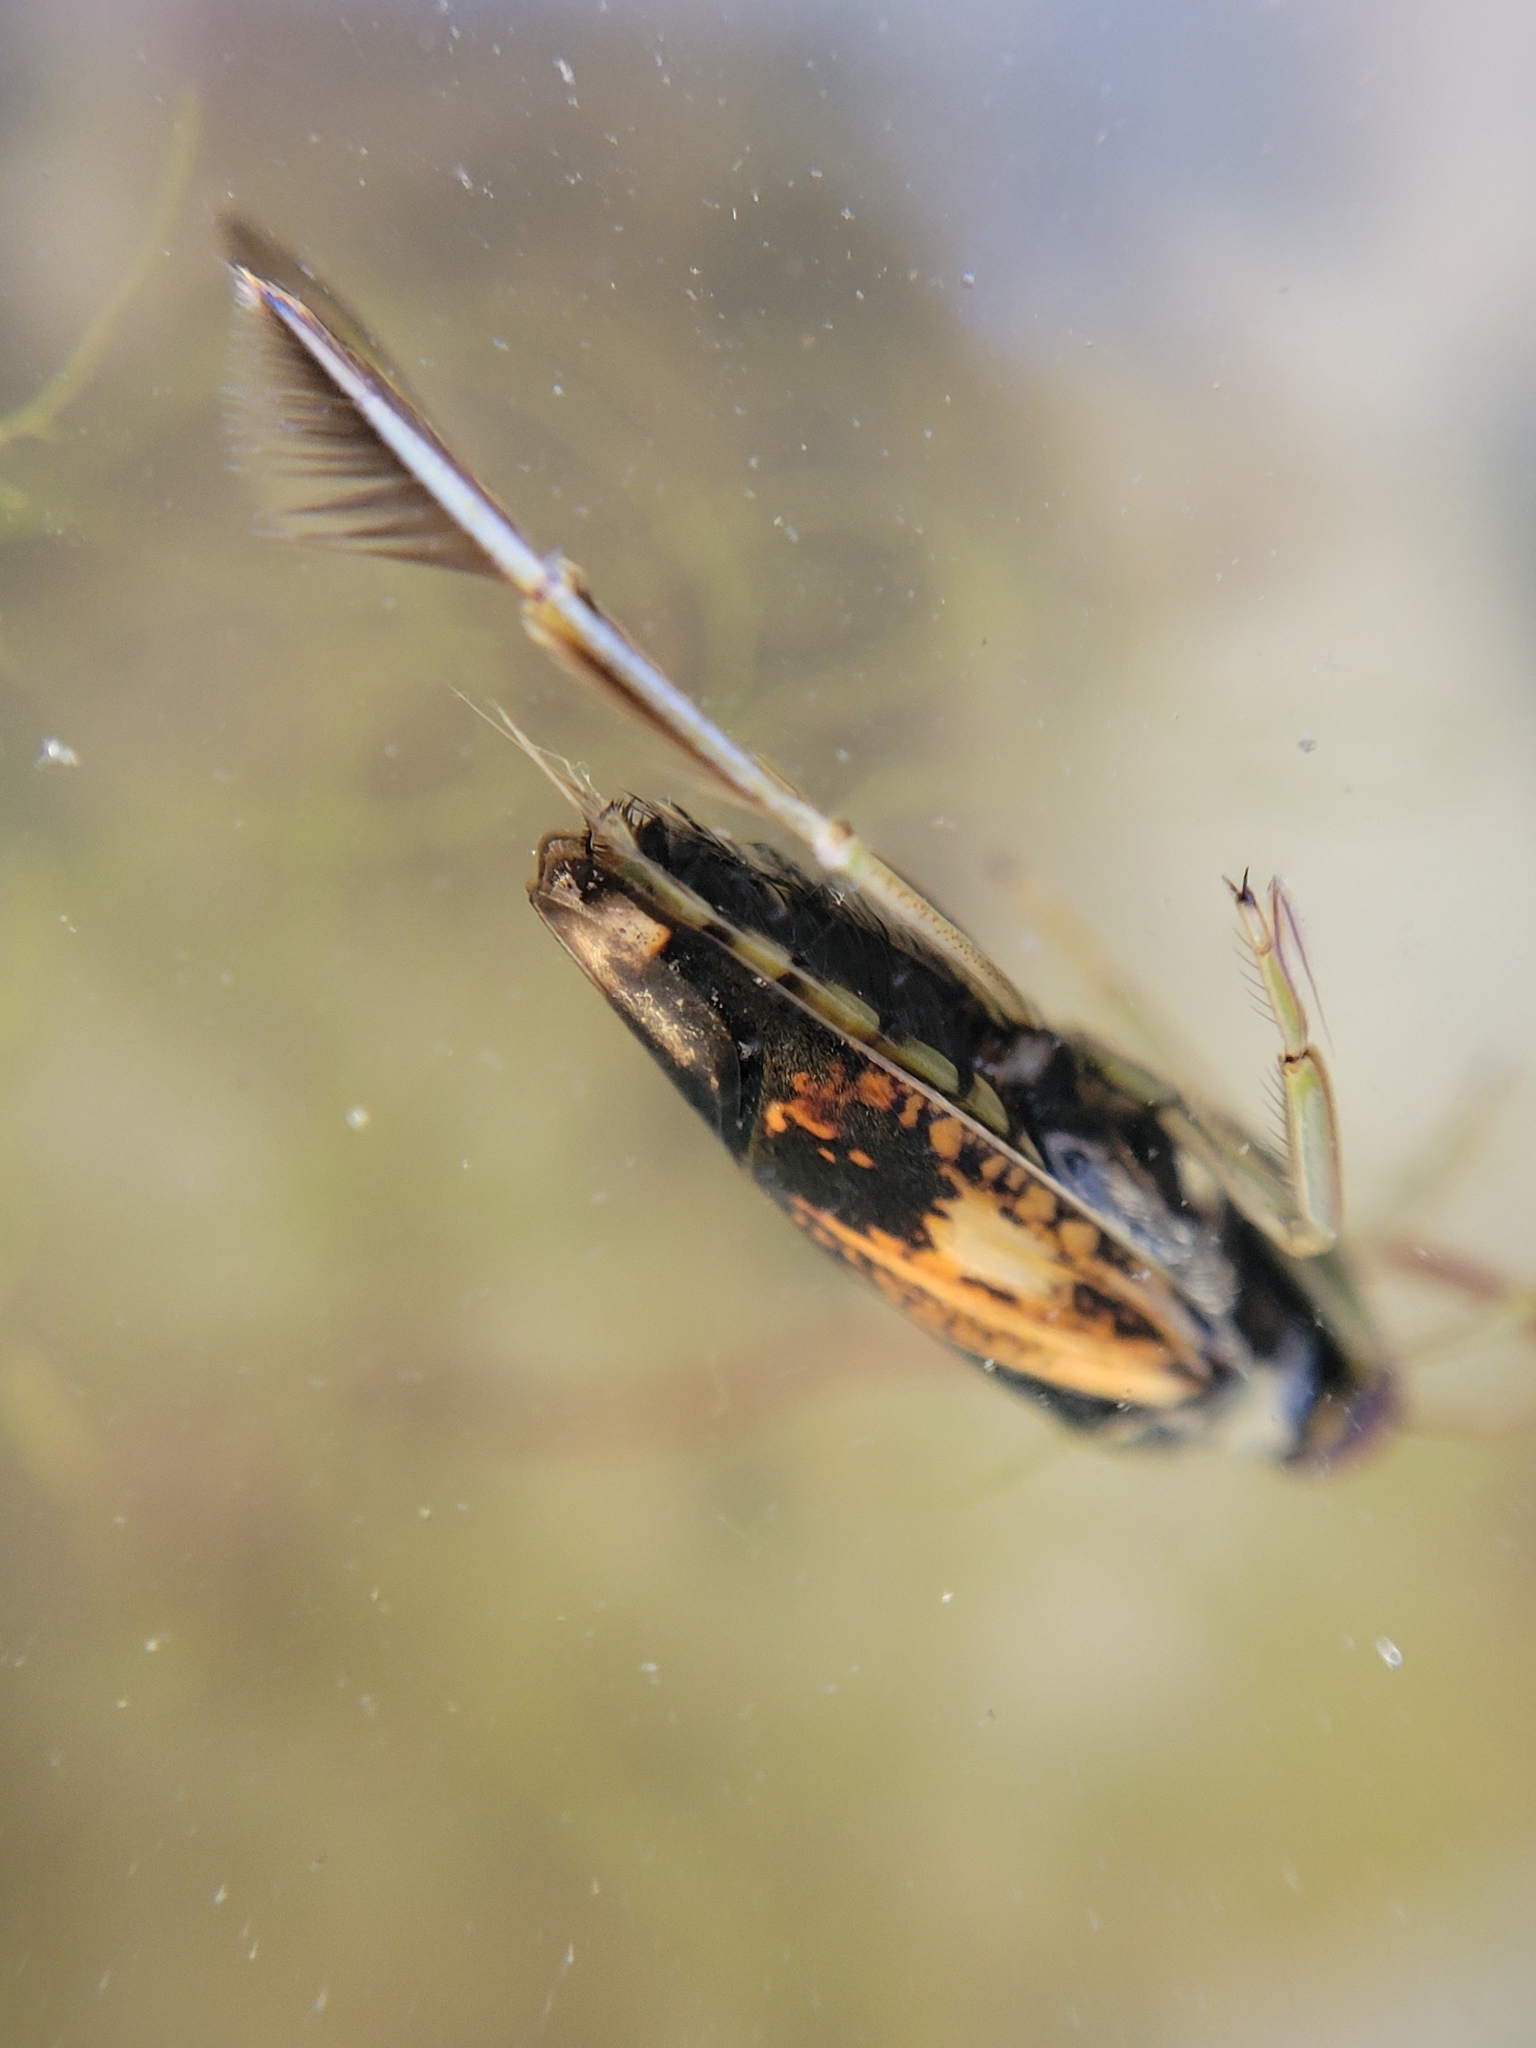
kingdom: Animalia
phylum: Arthropoda
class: Insecta
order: Hemiptera
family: Notonectidae
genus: Notonecta
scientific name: Notonecta kirbyi
